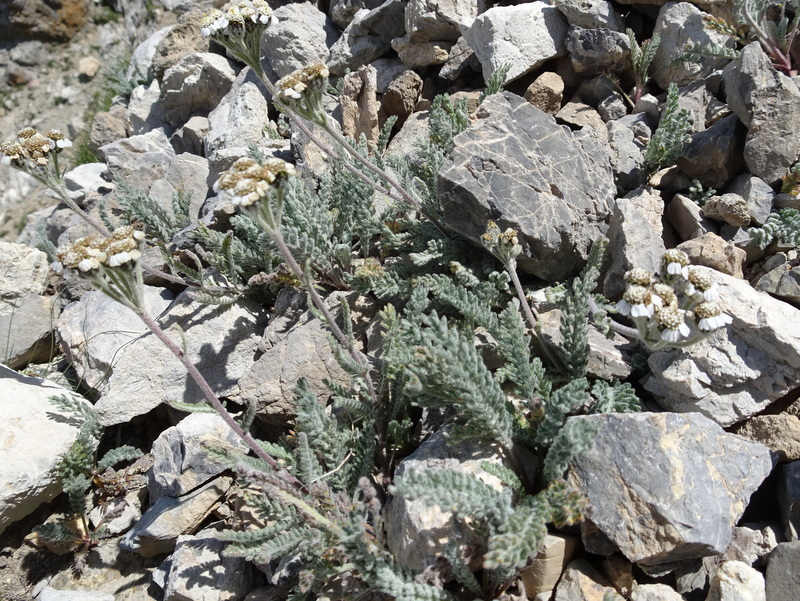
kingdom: Plantae
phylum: Tracheophyta
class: Magnoliopsida
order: Asterales
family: Asteraceae
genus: Achillea
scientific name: Achillea nana
